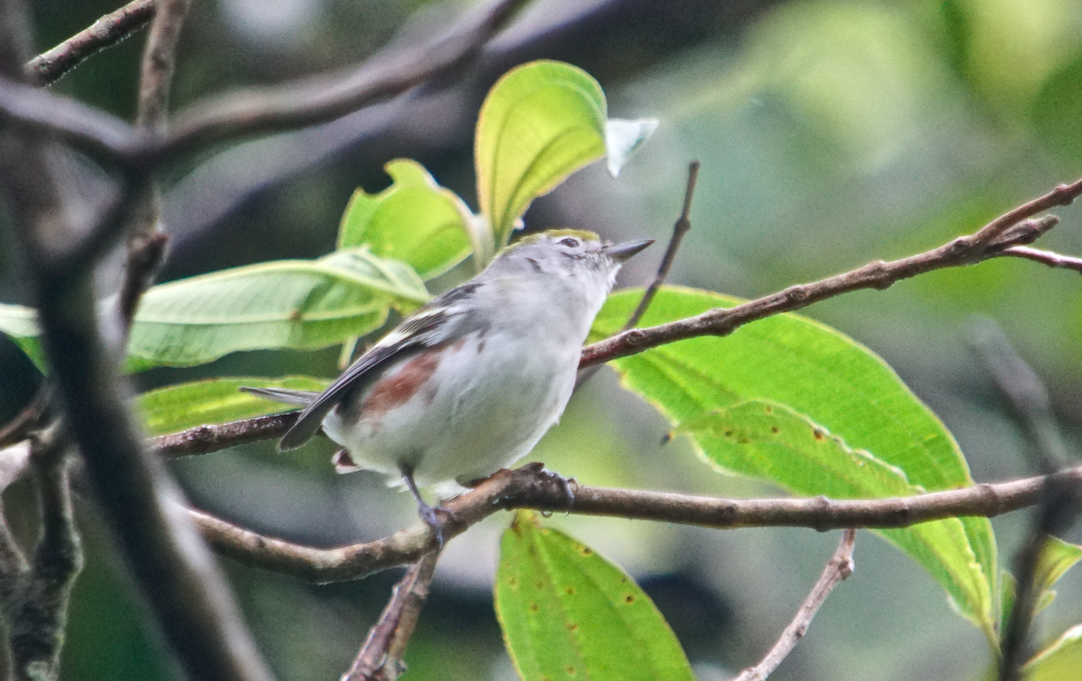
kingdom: Animalia
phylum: Chordata
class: Aves
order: Passeriformes
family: Parulidae
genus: Setophaga
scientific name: Setophaga pensylvanica
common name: Chestnut-sided warbler
